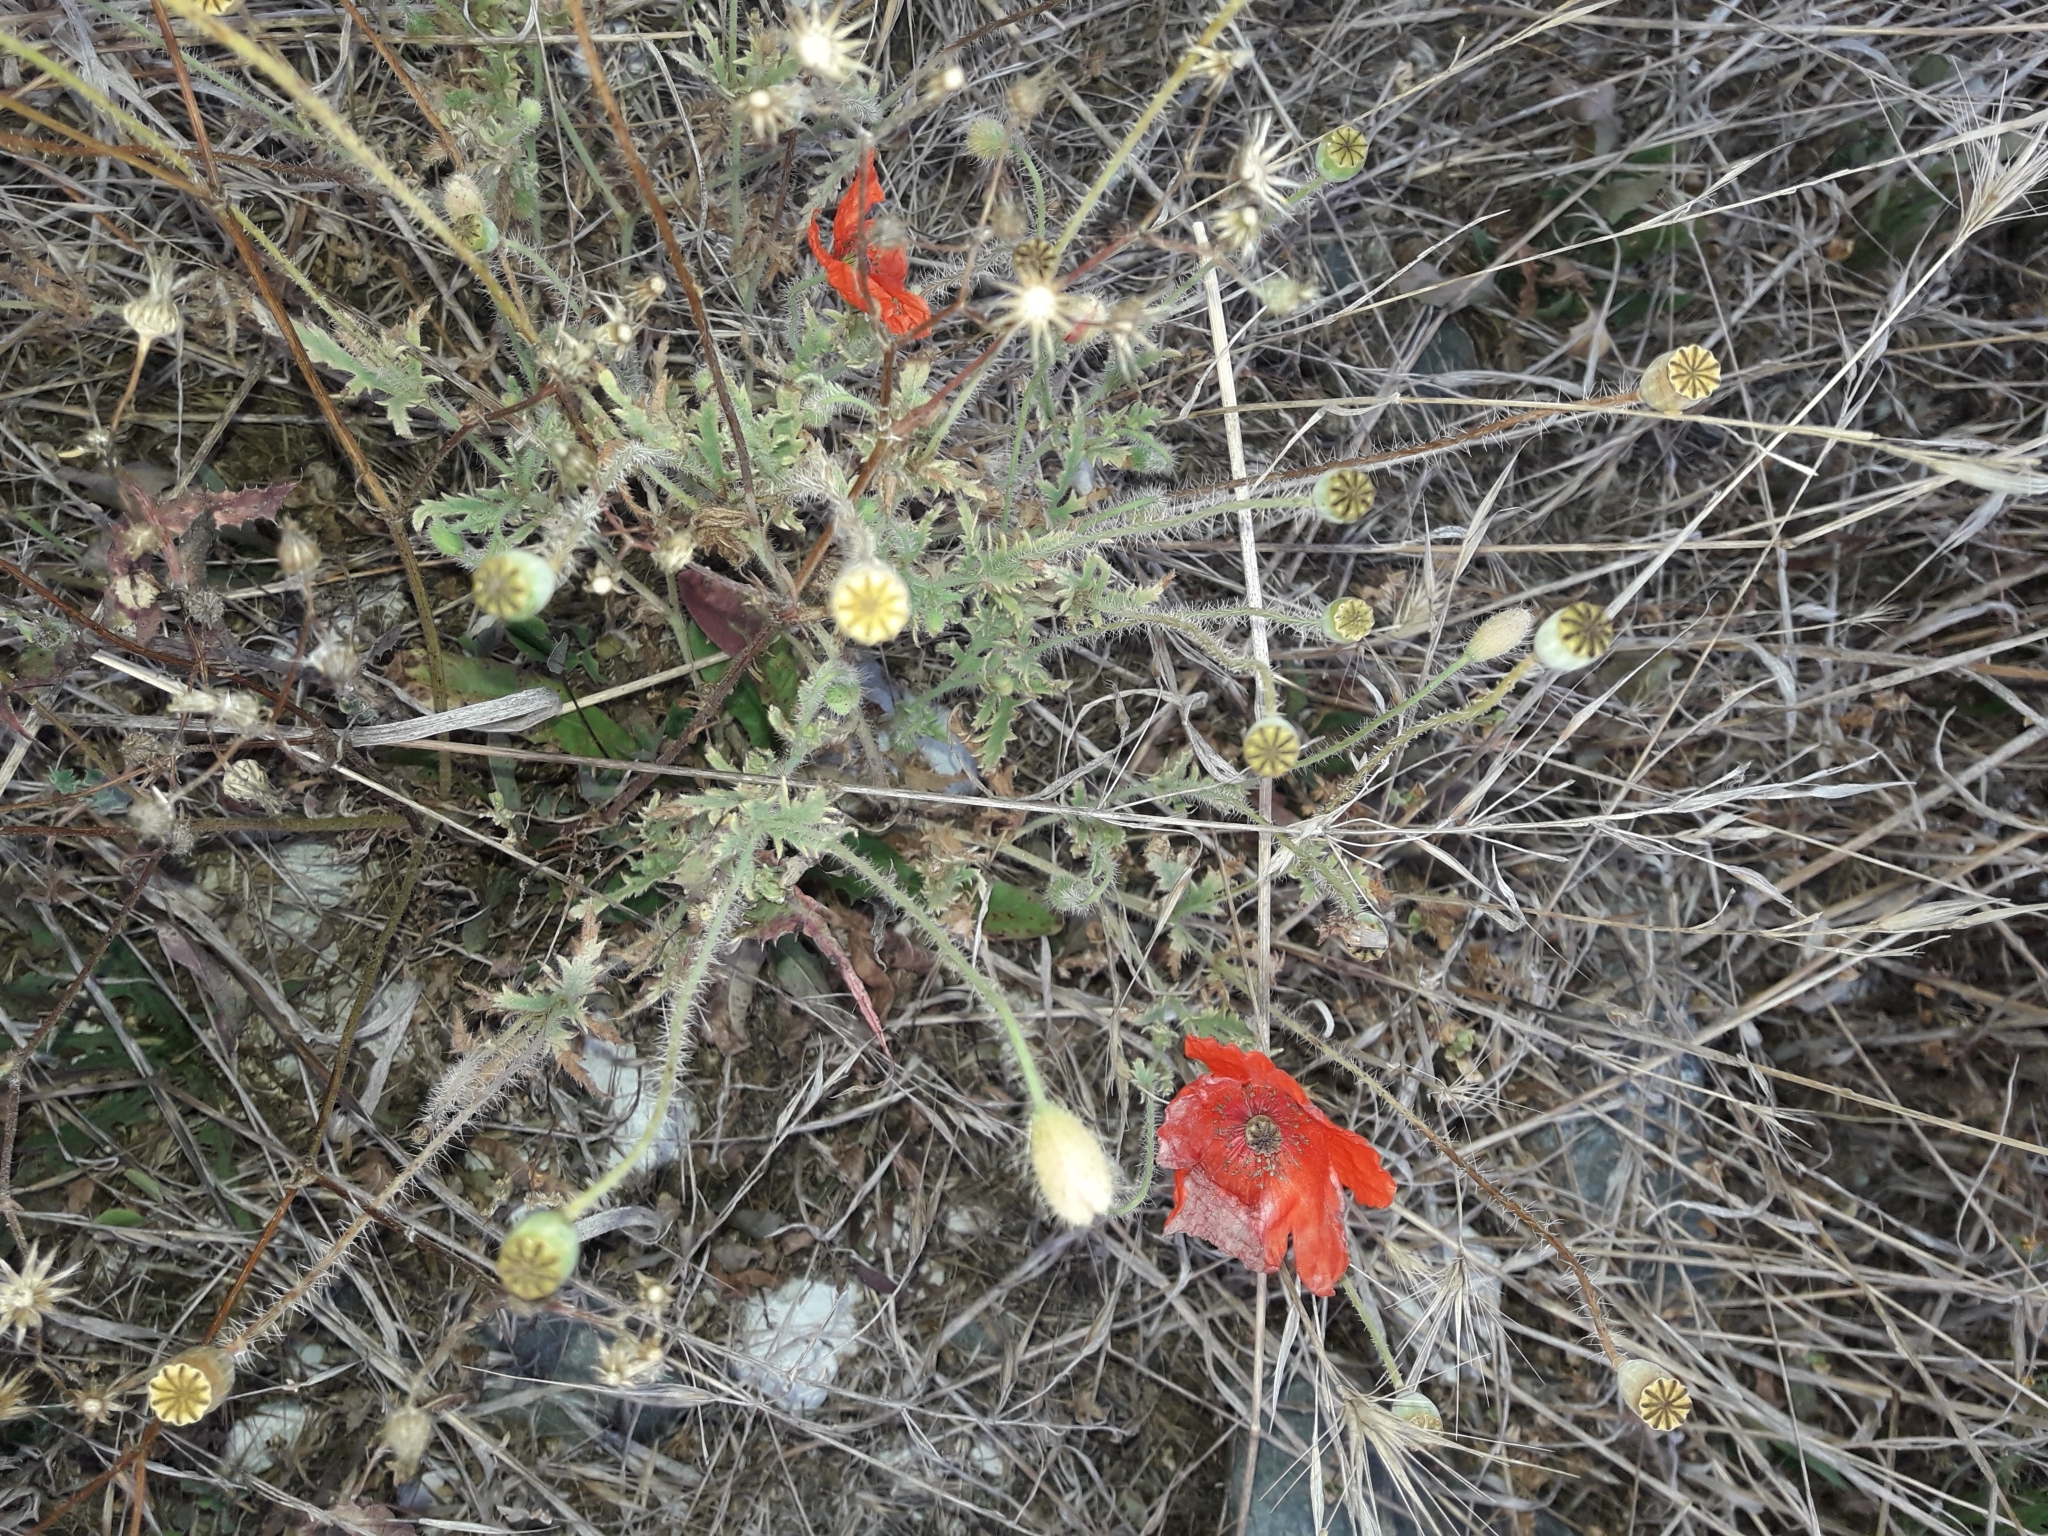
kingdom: Plantae
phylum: Tracheophyta
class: Magnoliopsida
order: Ranunculales
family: Papaveraceae
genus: Papaver
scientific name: Papaver rhoeas
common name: Corn poppy
